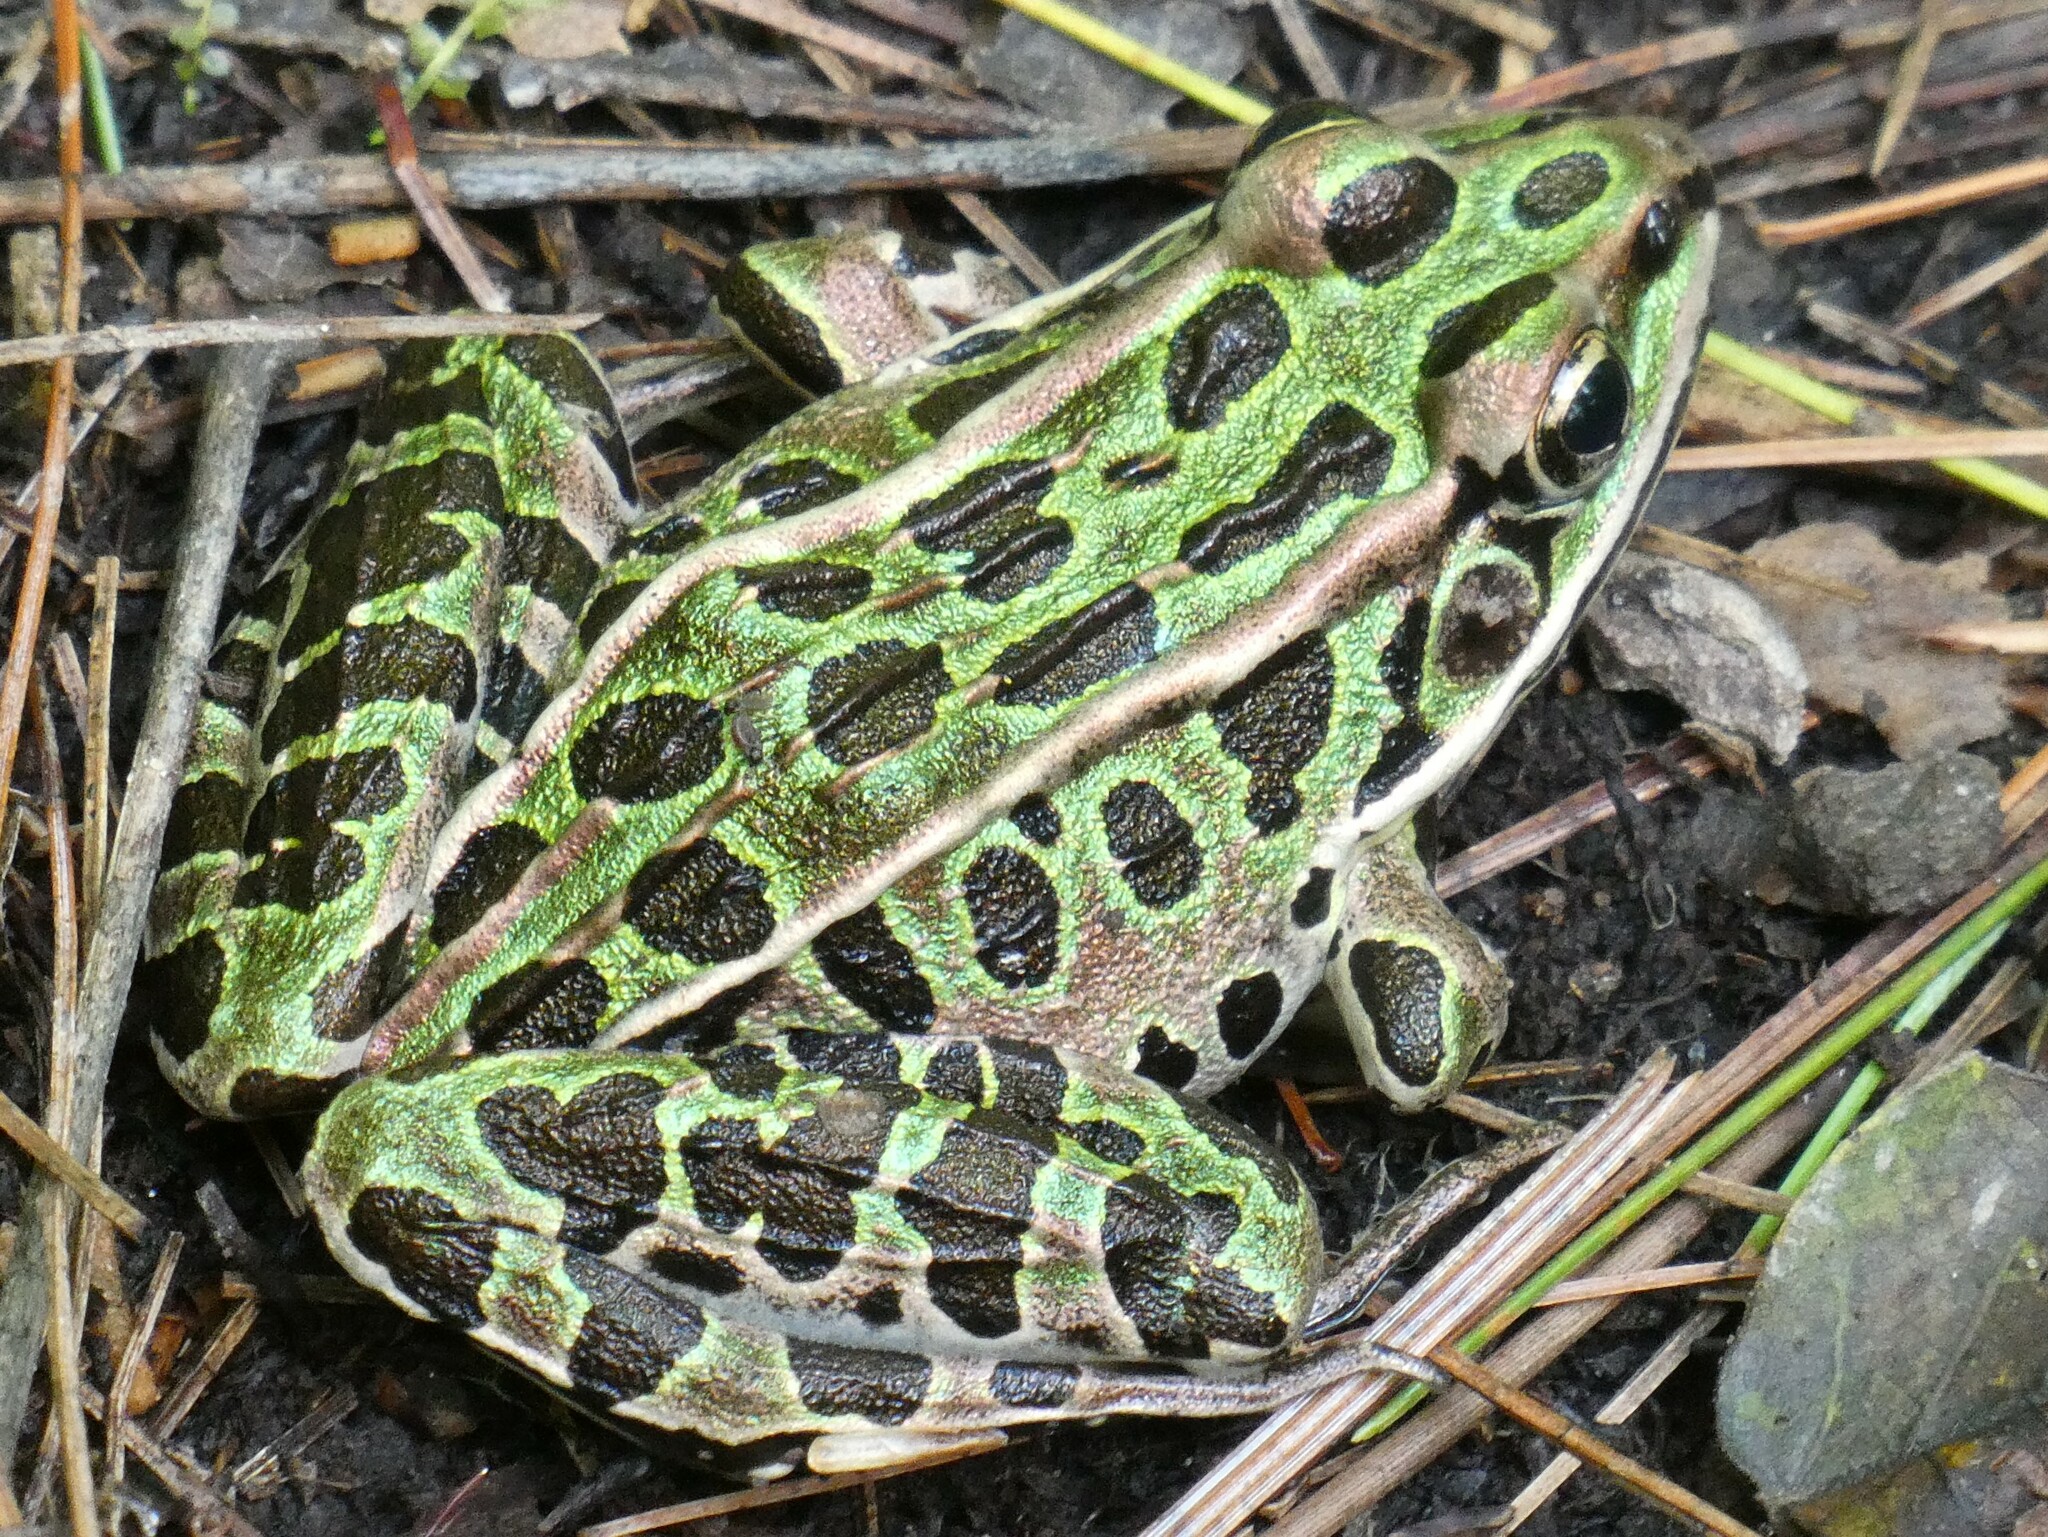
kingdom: Animalia
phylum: Chordata
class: Amphibia
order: Anura
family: Ranidae
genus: Lithobates
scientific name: Lithobates pipiens
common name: Northern leopard frog
